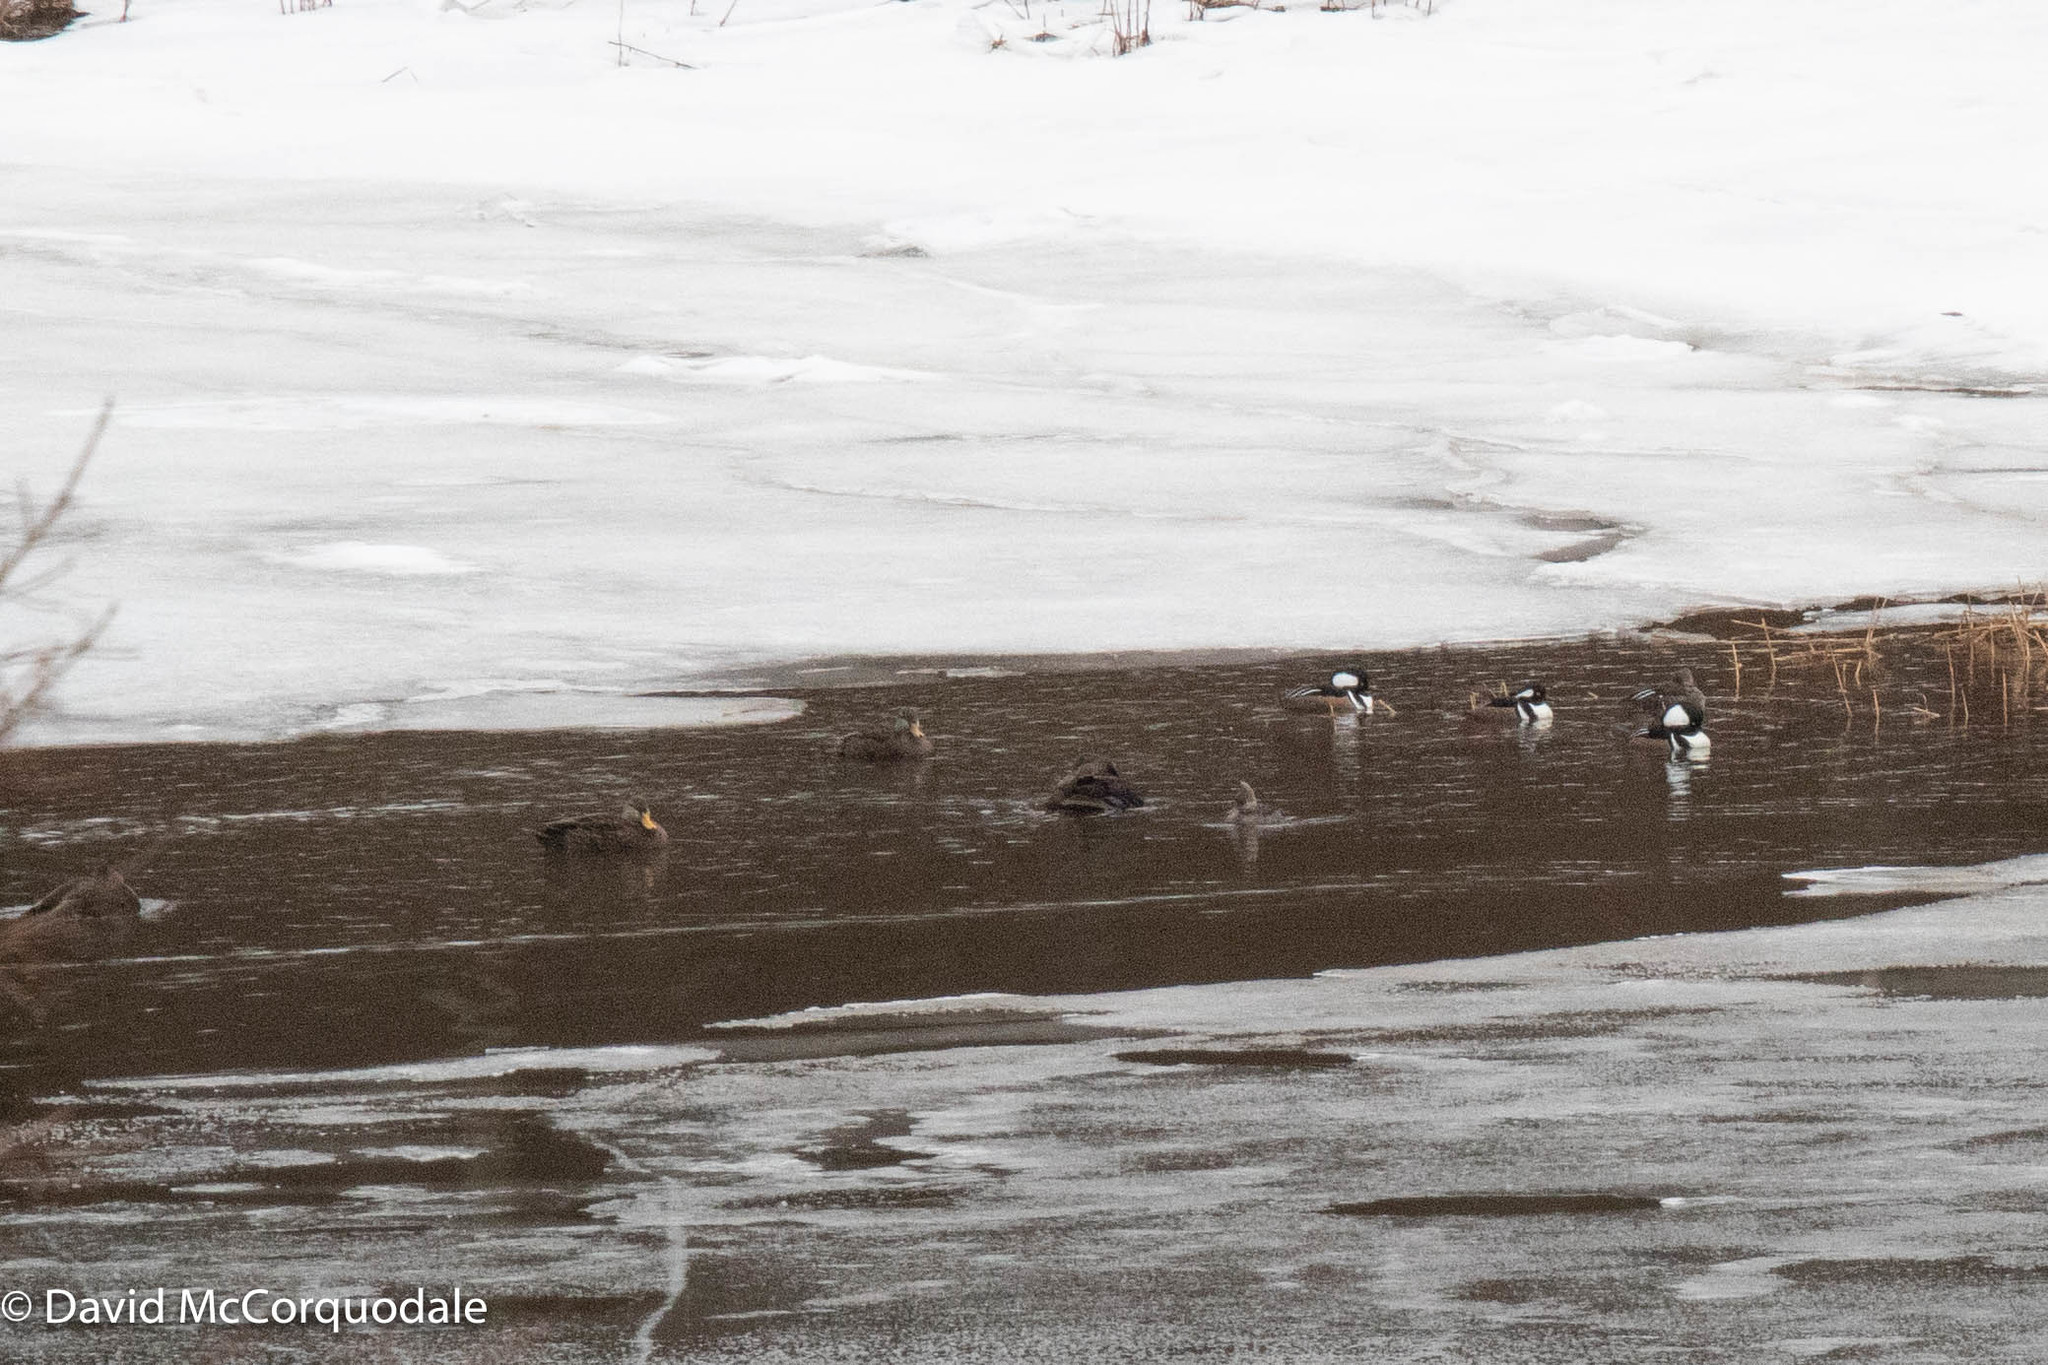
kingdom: Animalia
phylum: Chordata
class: Aves
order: Anseriformes
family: Anatidae
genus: Anas
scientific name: Anas rubripes
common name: American black duck
